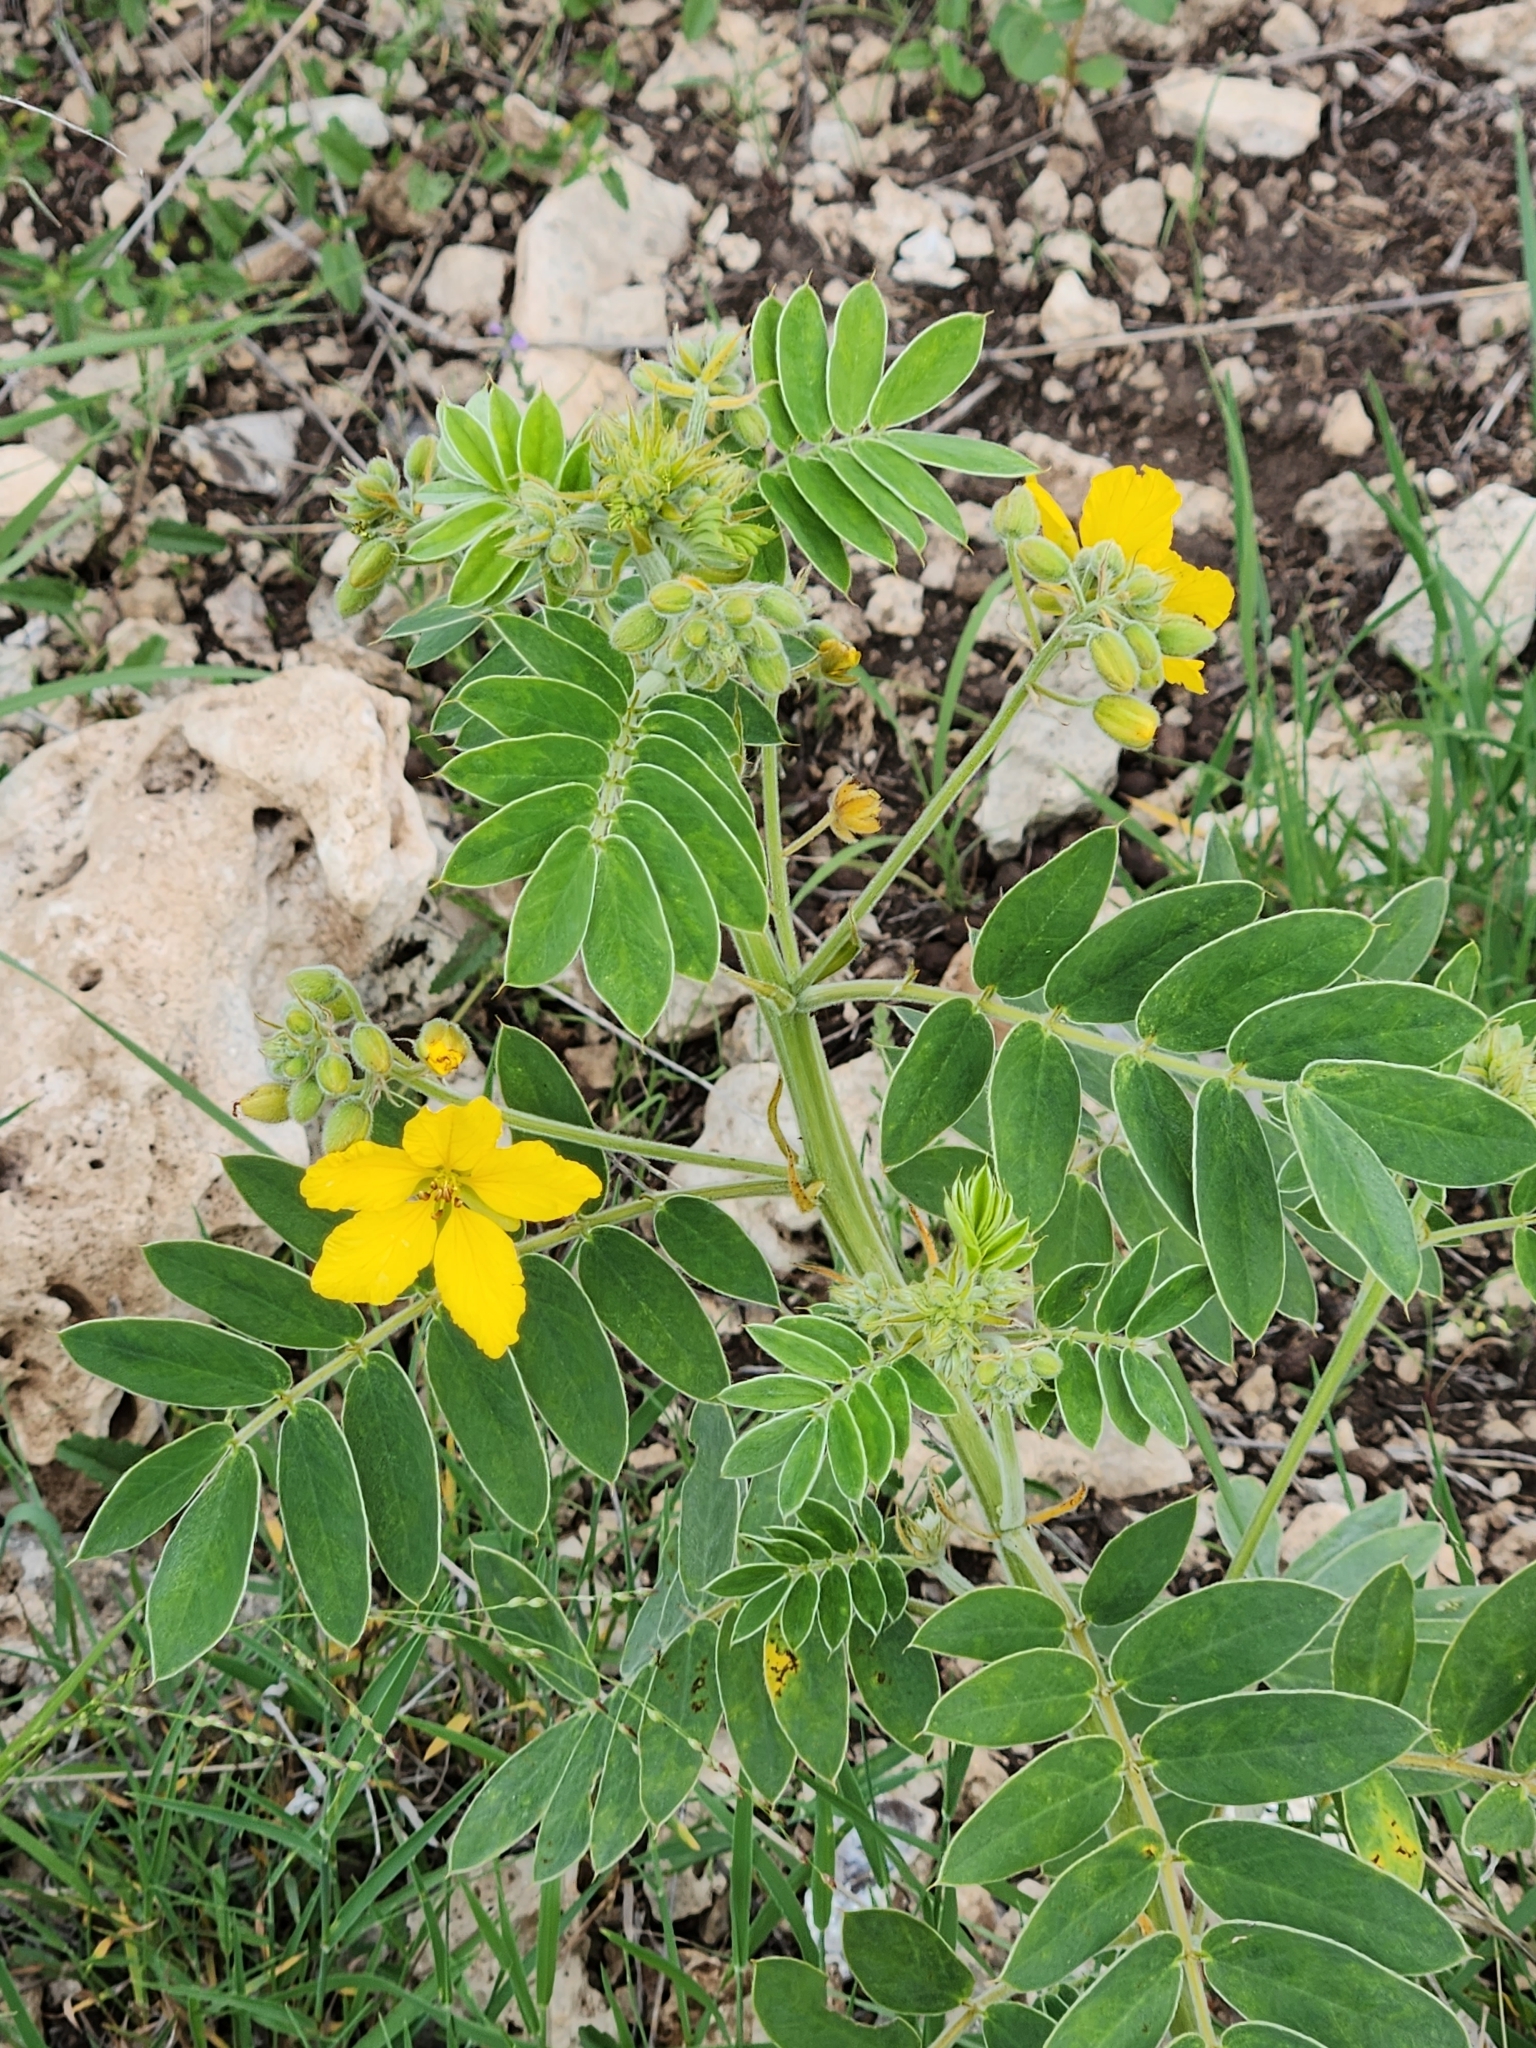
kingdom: Plantae
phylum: Tracheophyta
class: Magnoliopsida
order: Fabales
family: Fabaceae
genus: Senna
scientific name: Senna lindheimeriana
